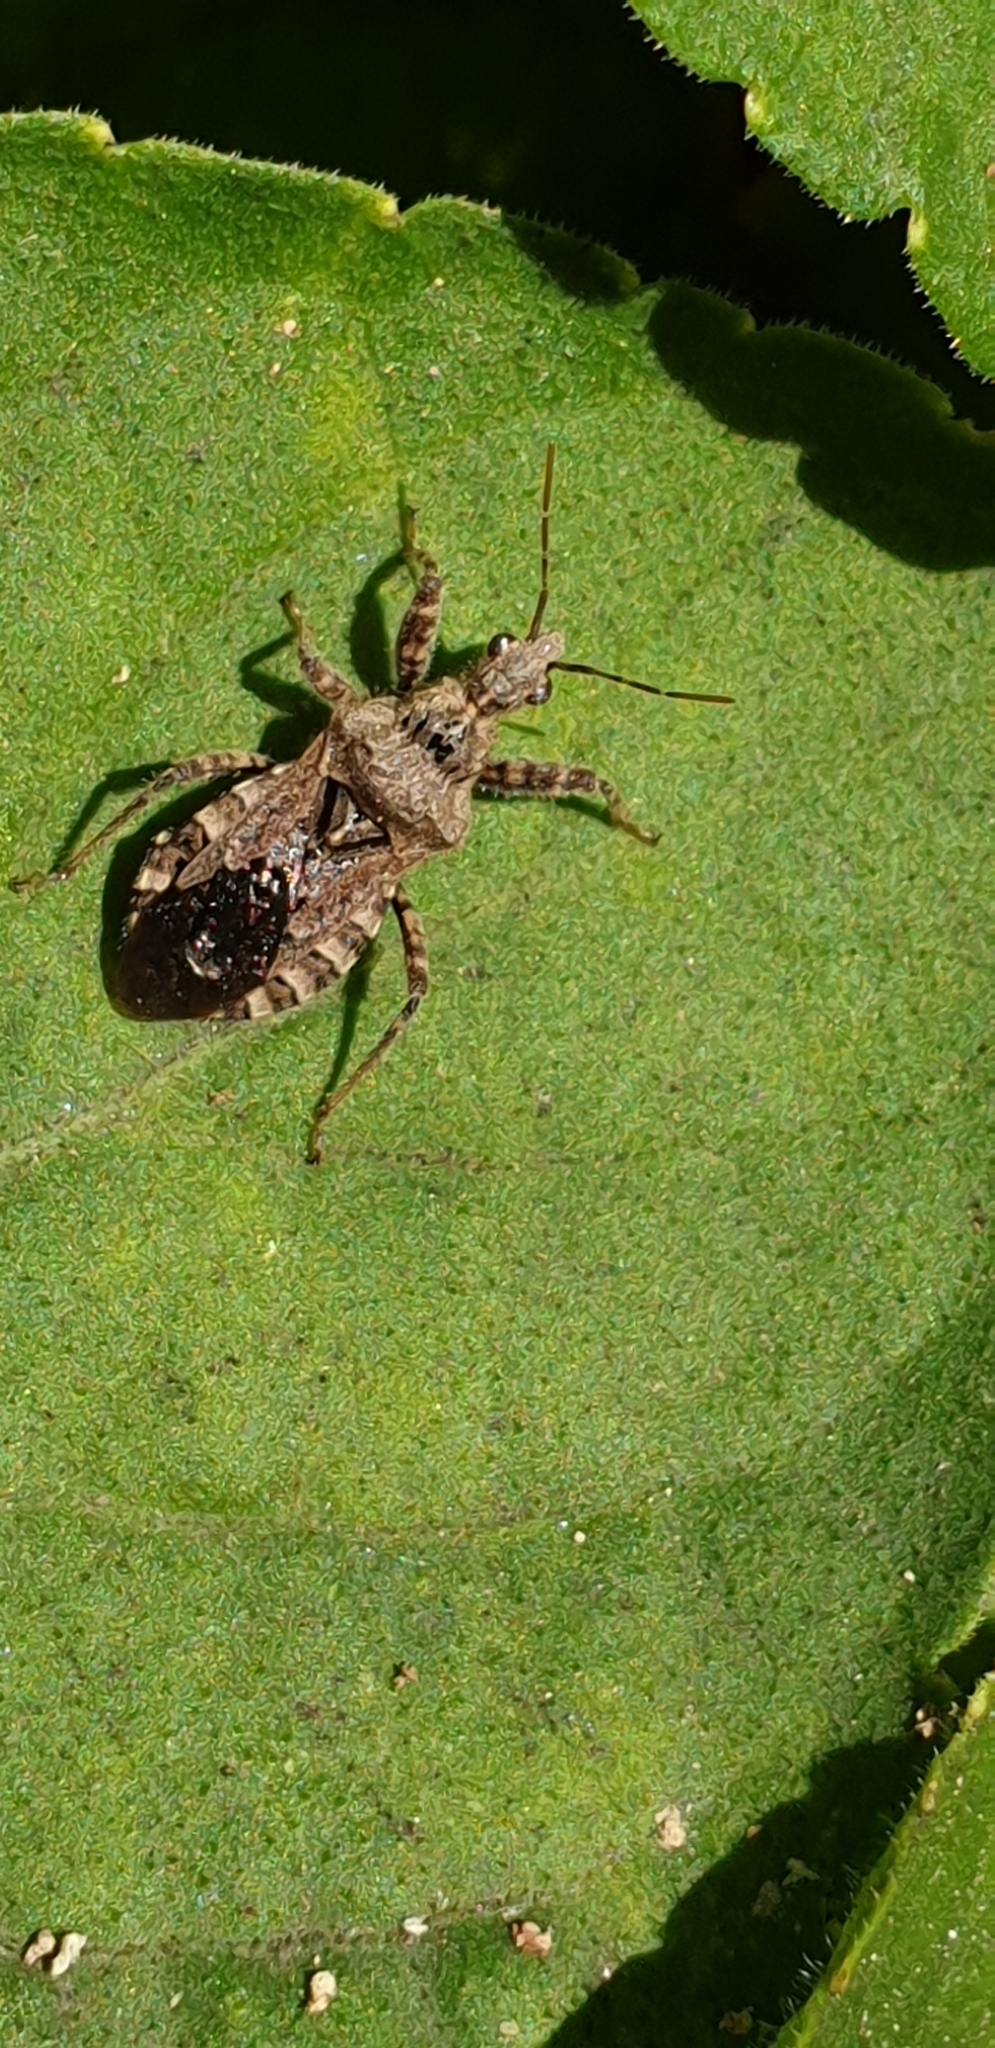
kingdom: Animalia
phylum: Arthropoda
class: Insecta
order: Hemiptera
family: Reduviidae
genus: Coranus
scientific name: Coranus griseus
